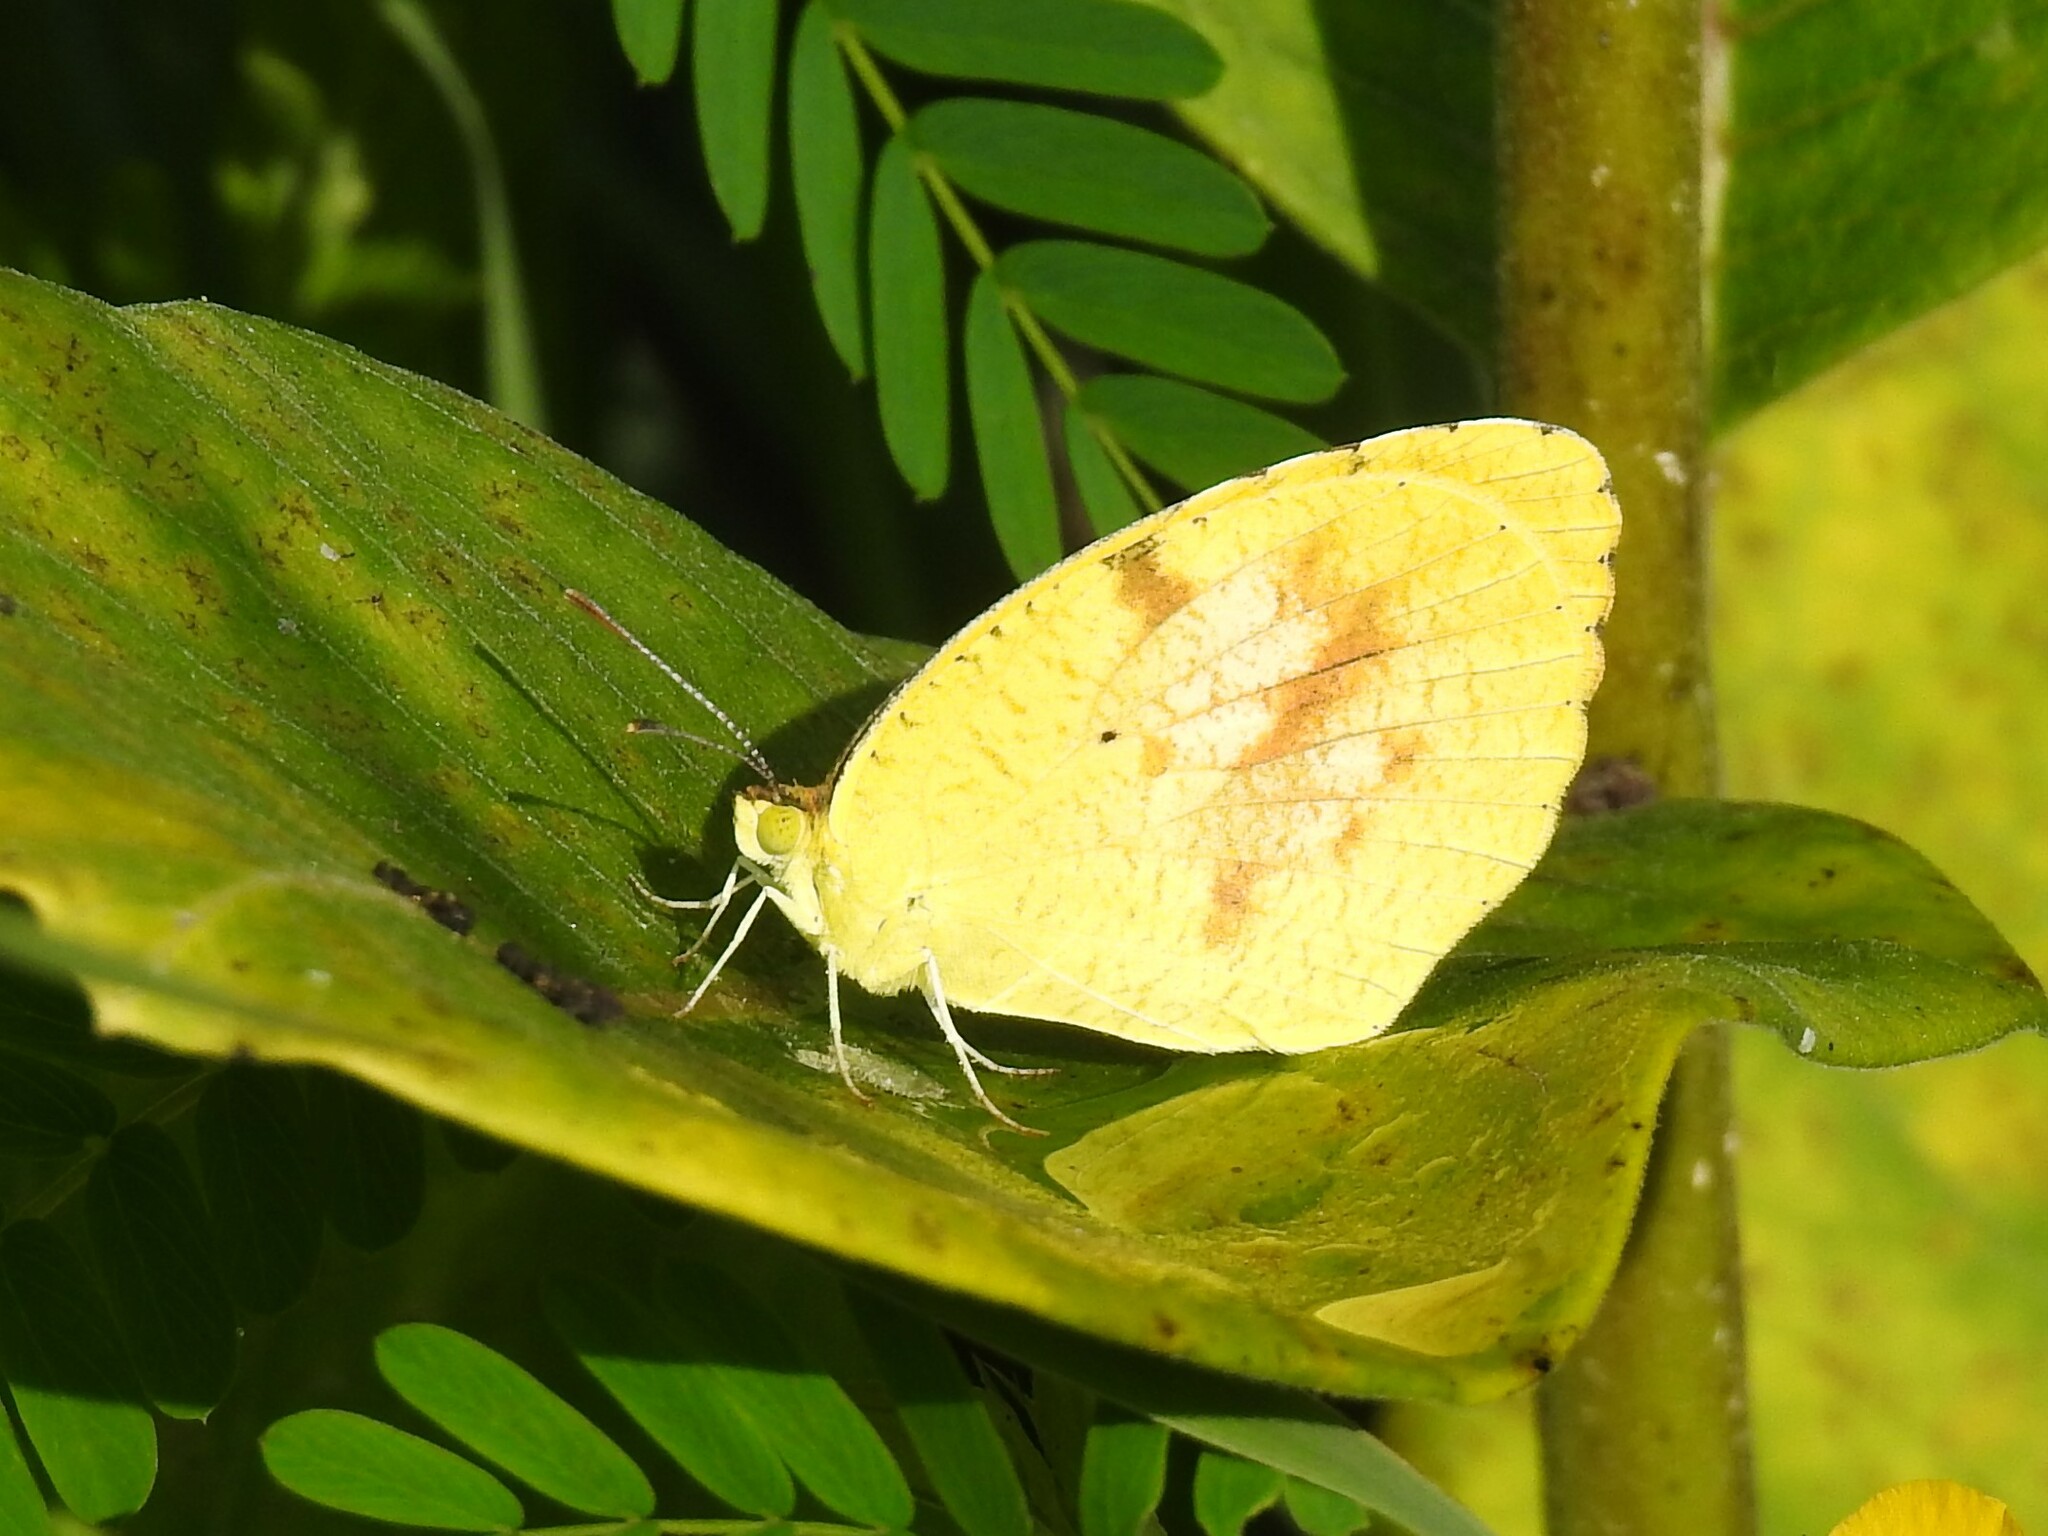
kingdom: Animalia
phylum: Arthropoda
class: Insecta
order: Lepidoptera
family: Pieridae
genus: Abaeis
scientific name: Abaeis nicippe
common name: Sleepy orange
